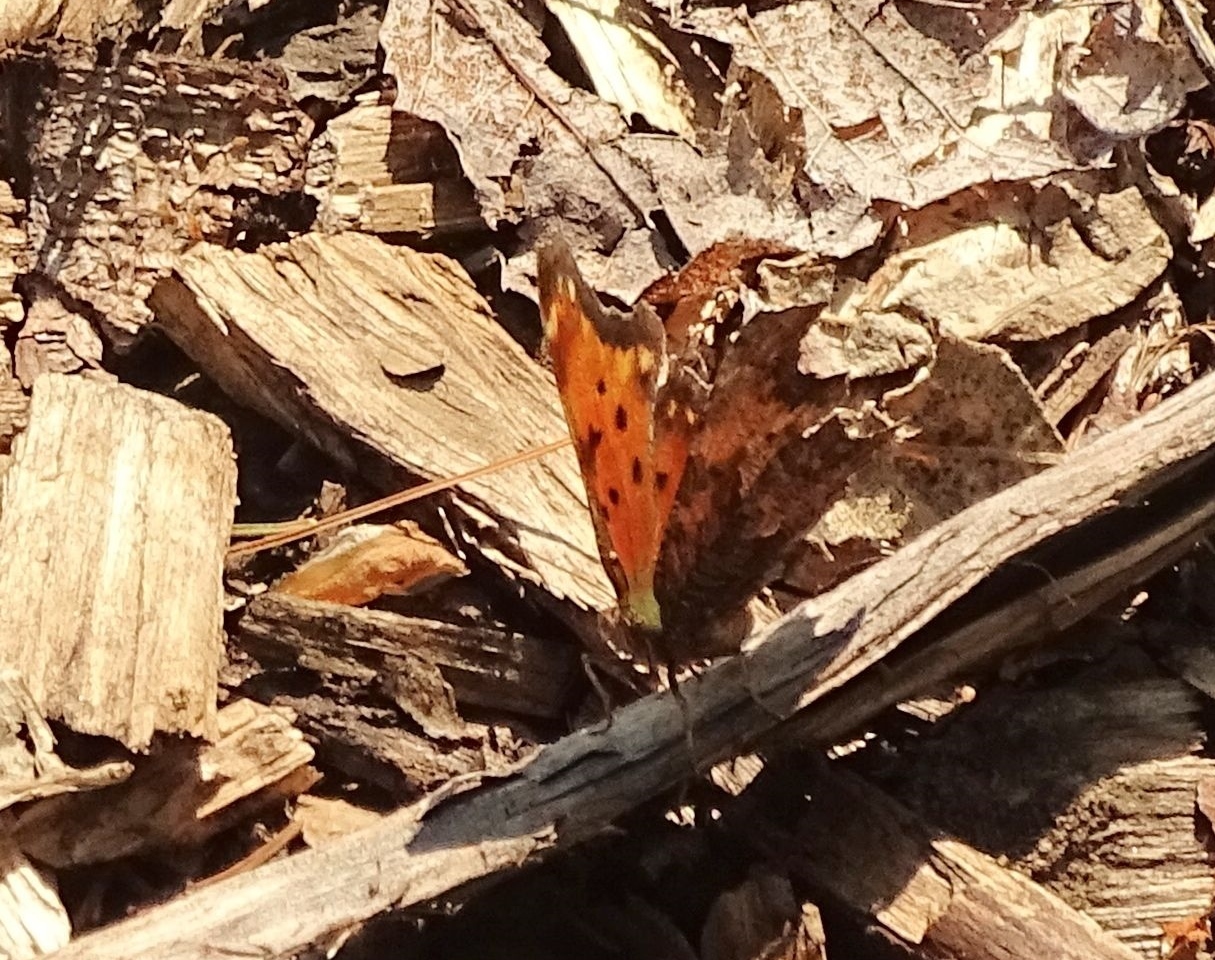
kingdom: Animalia
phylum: Arthropoda
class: Insecta
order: Lepidoptera
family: Nymphalidae
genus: Polygonia
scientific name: Polygonia progne
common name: Gray comma
